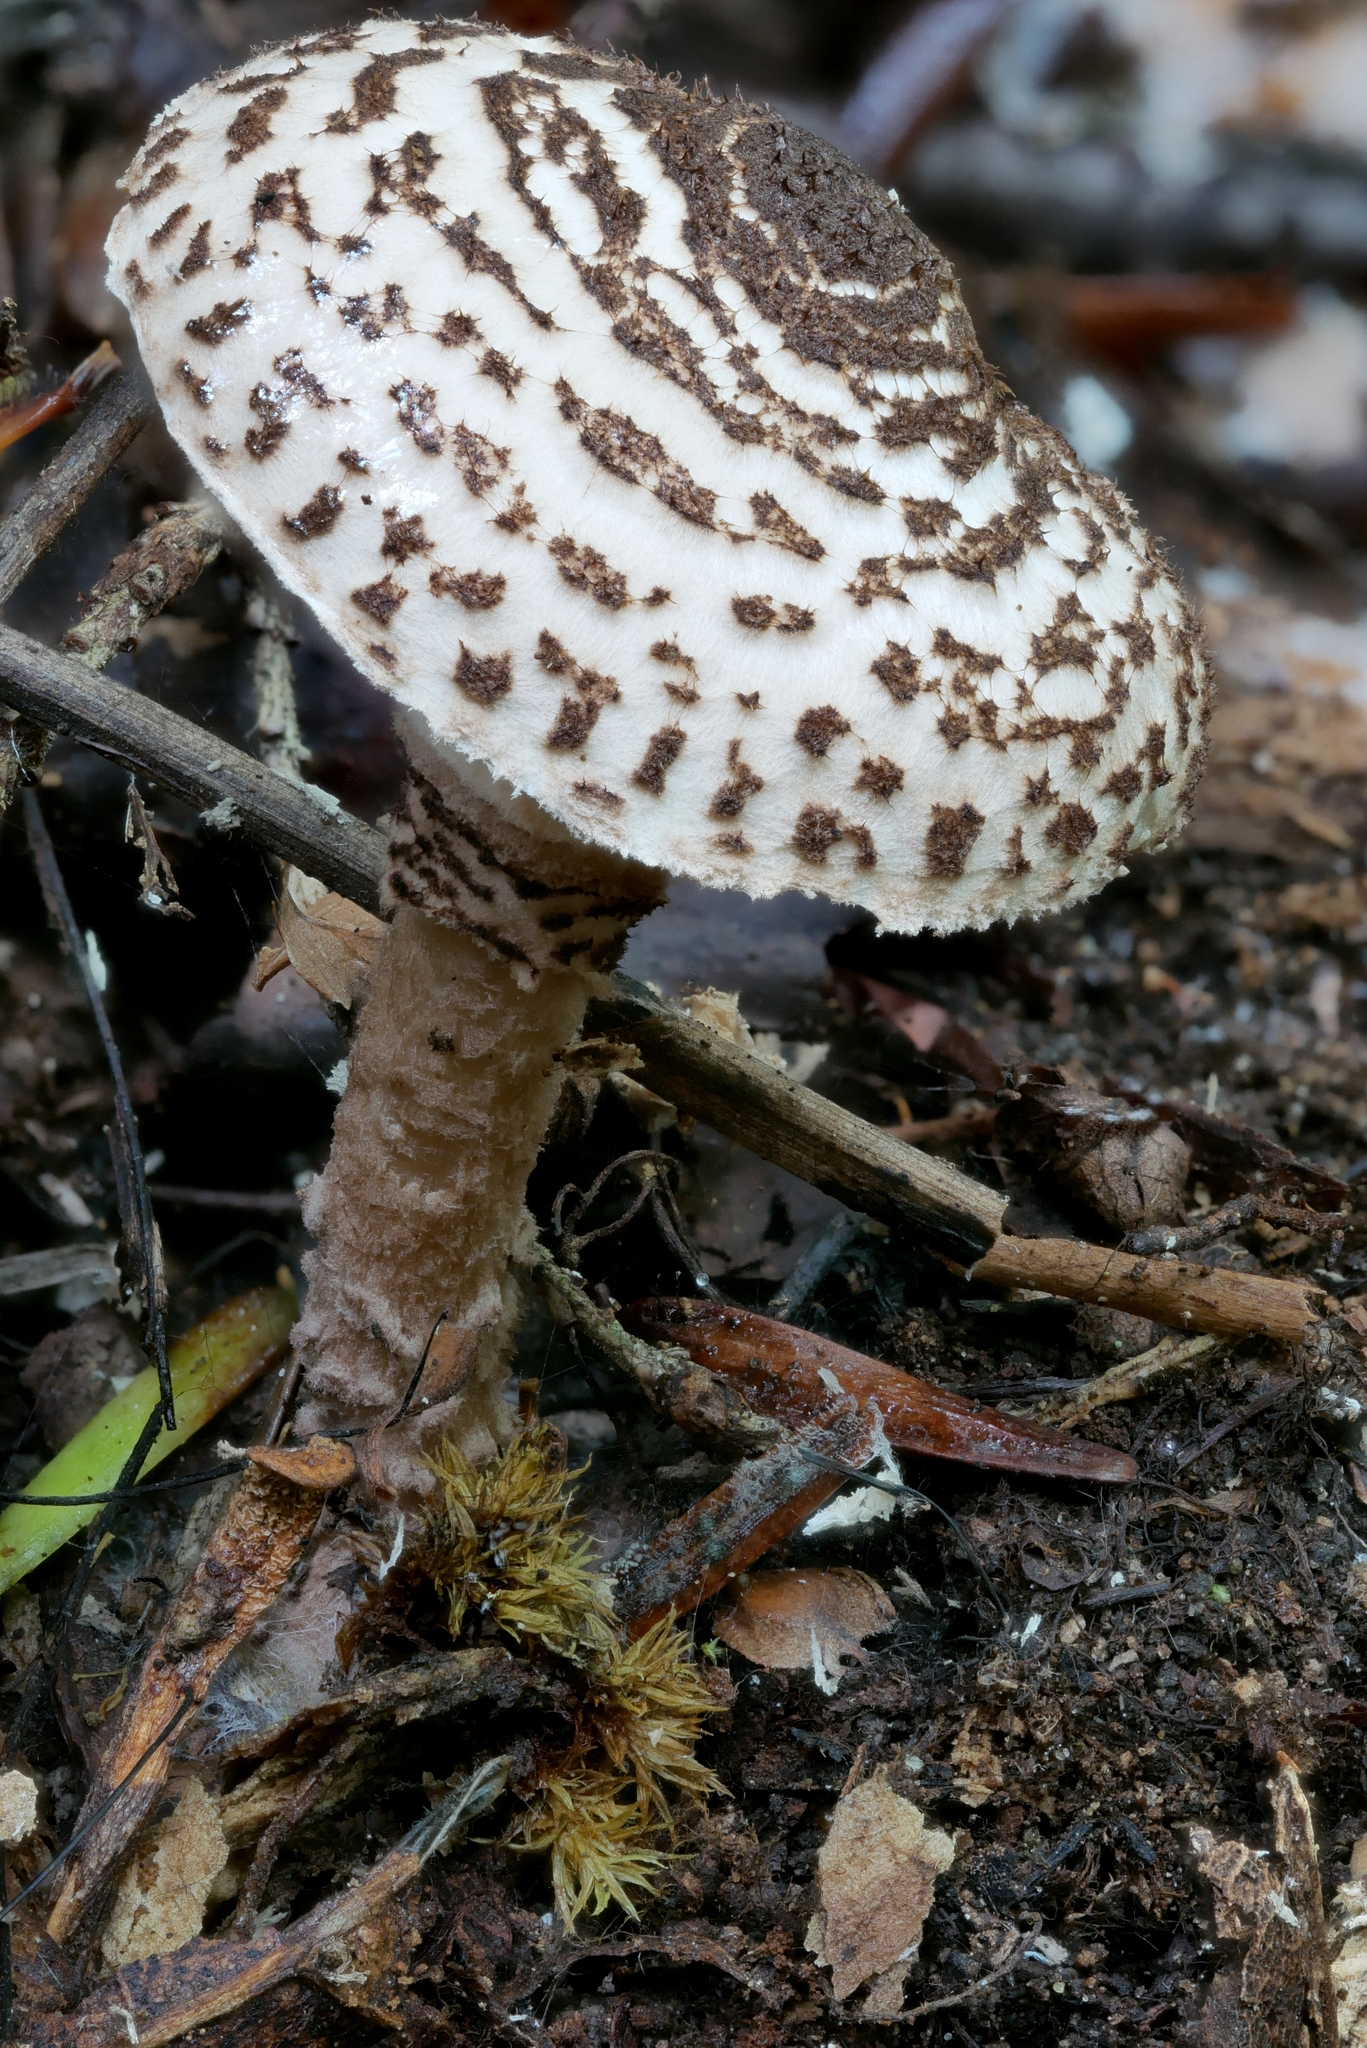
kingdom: Fungi
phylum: Basidiomycota
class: Agaricomycetes
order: Agaricales
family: Agaricaceae
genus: Lepiota
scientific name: Lepiota felina
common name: Cat dapperling
